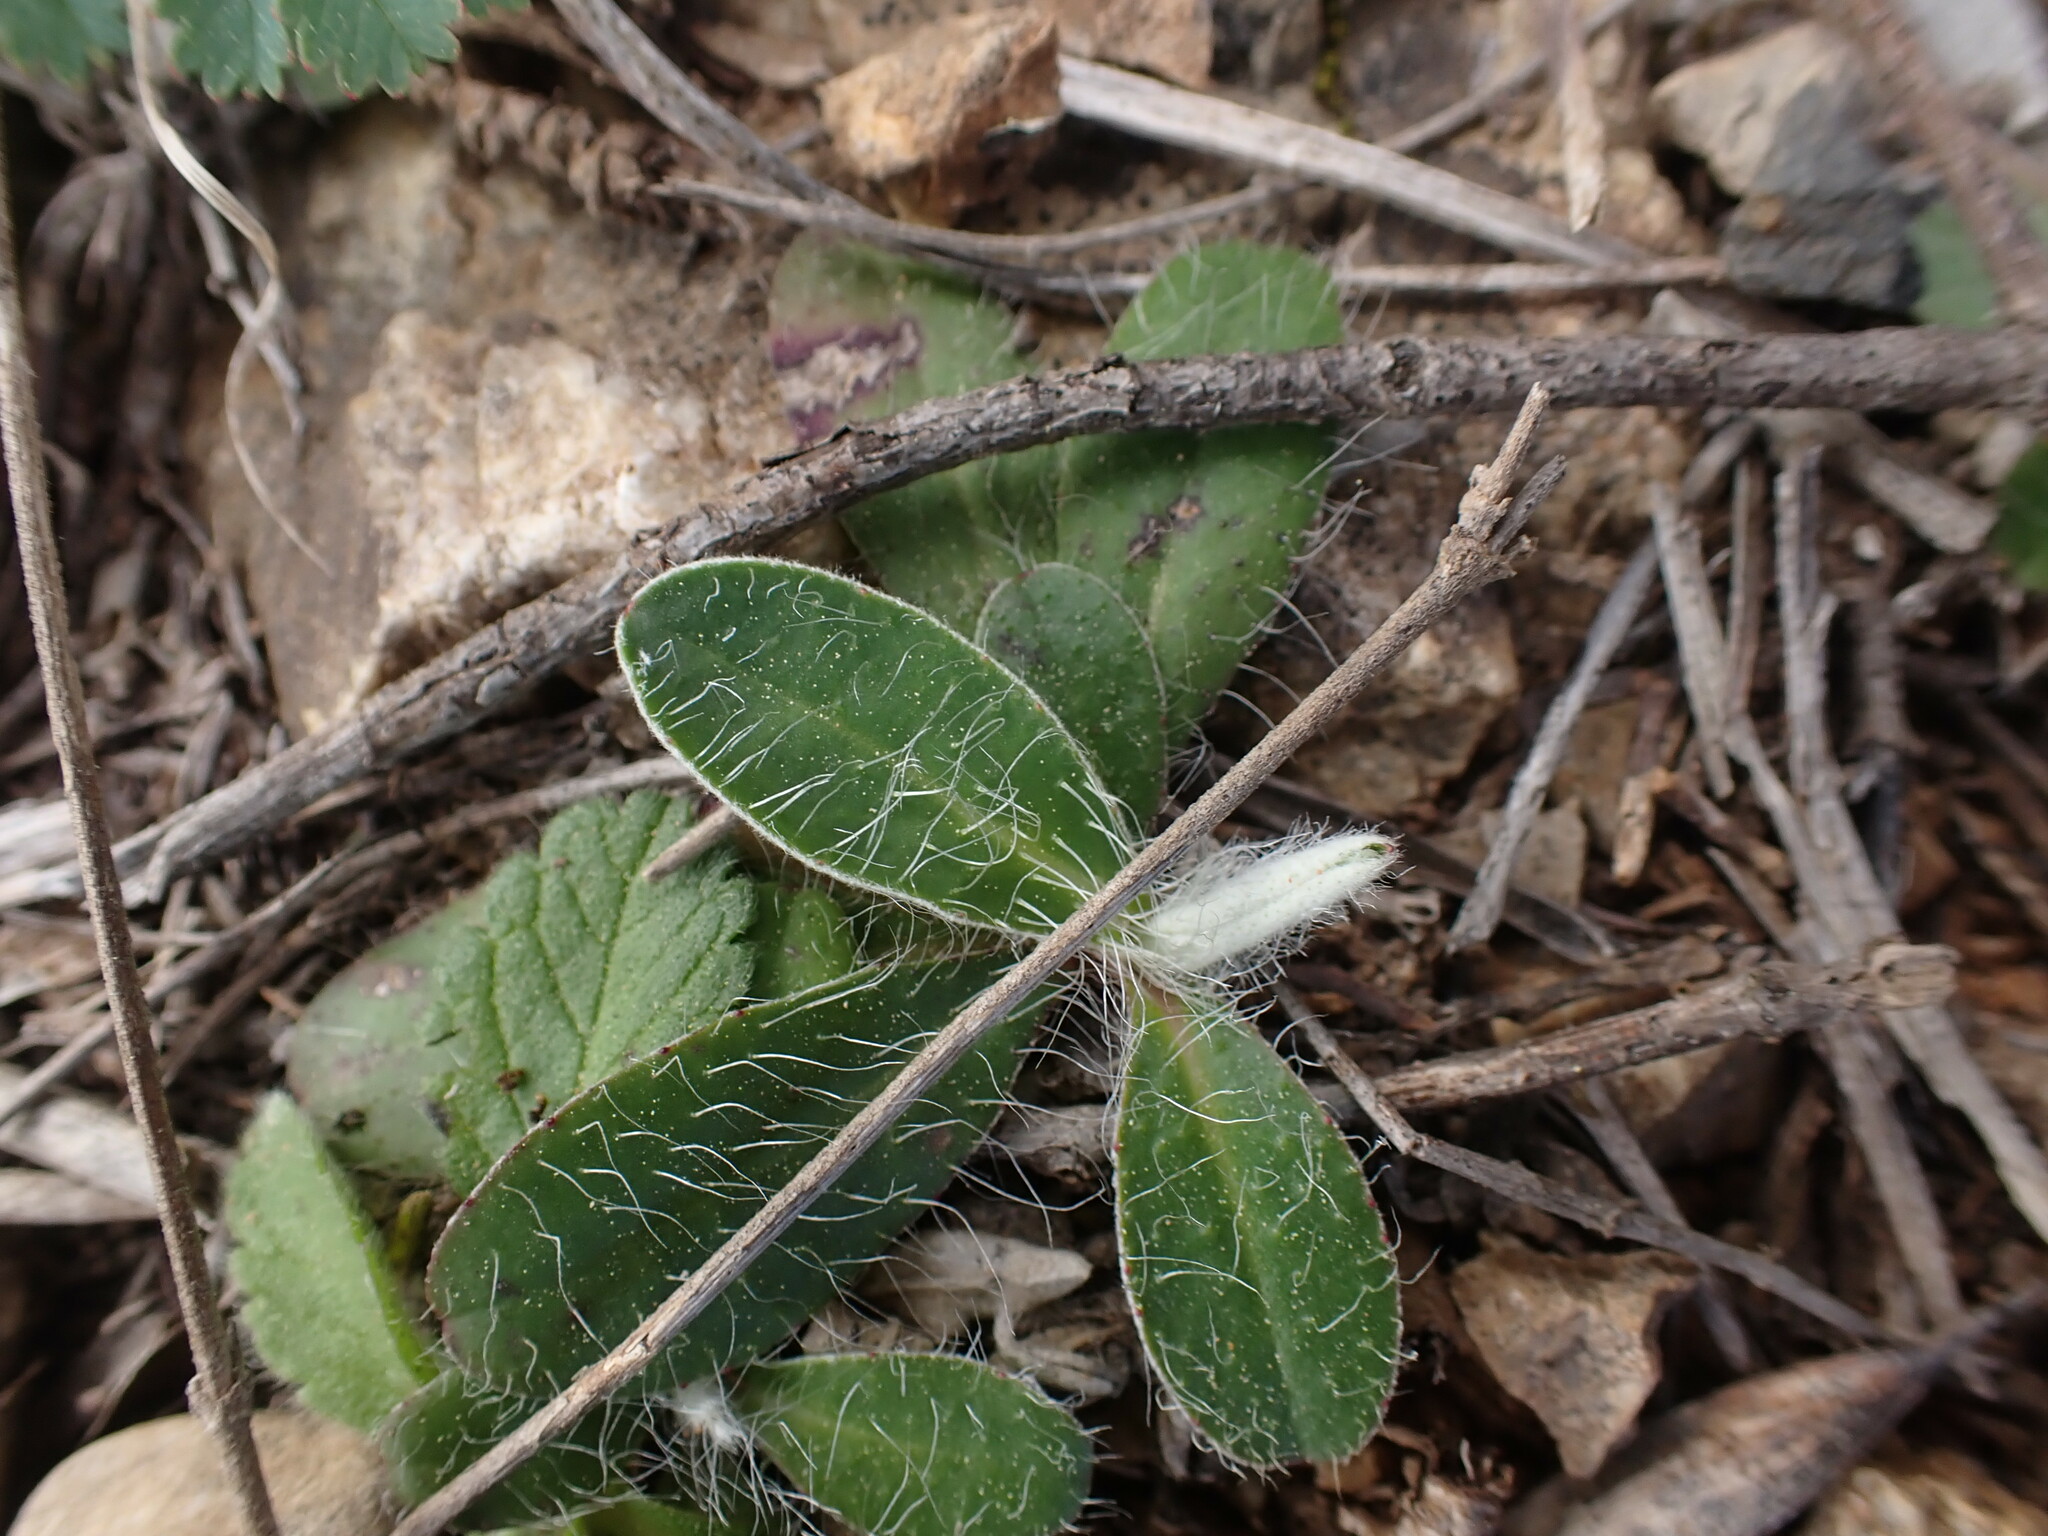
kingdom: Plantae
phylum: Tracheophyta
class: Magnoliopsida
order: Asterales
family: Asteraceae
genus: Pilosella
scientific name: Pilosella officinarum
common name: Mouse-ear hawkweed
